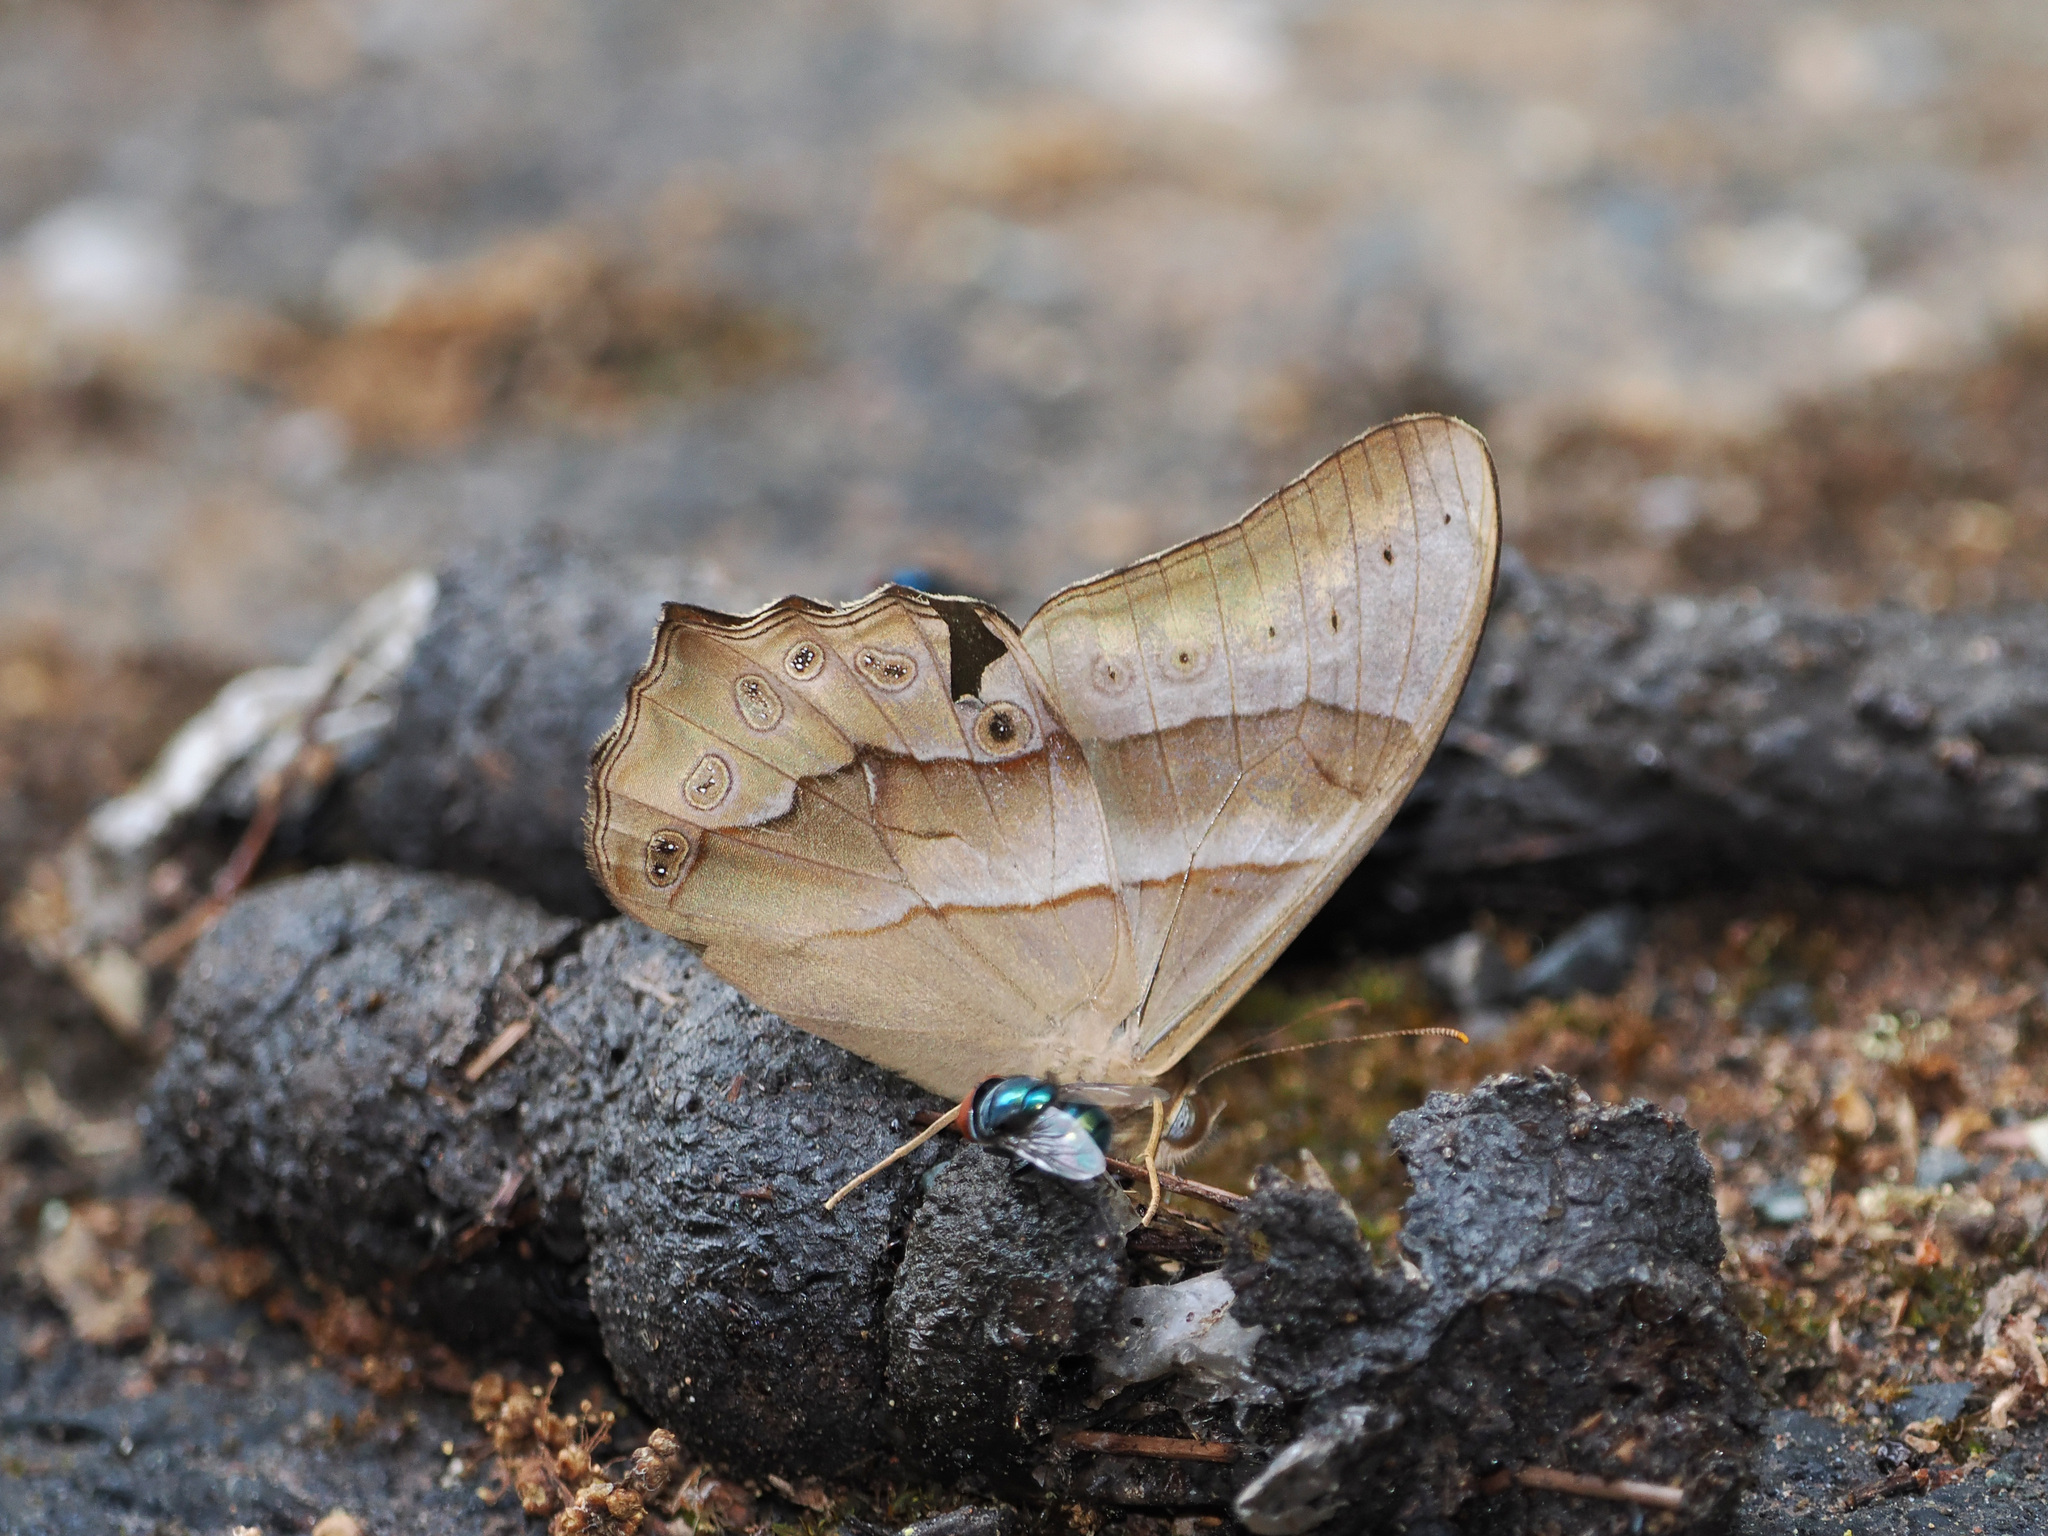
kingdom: Animalia
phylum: Arthropoda
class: Insecta
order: Lepidoptera
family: Nymphalidae
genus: Lethe
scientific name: Lethe kansa
